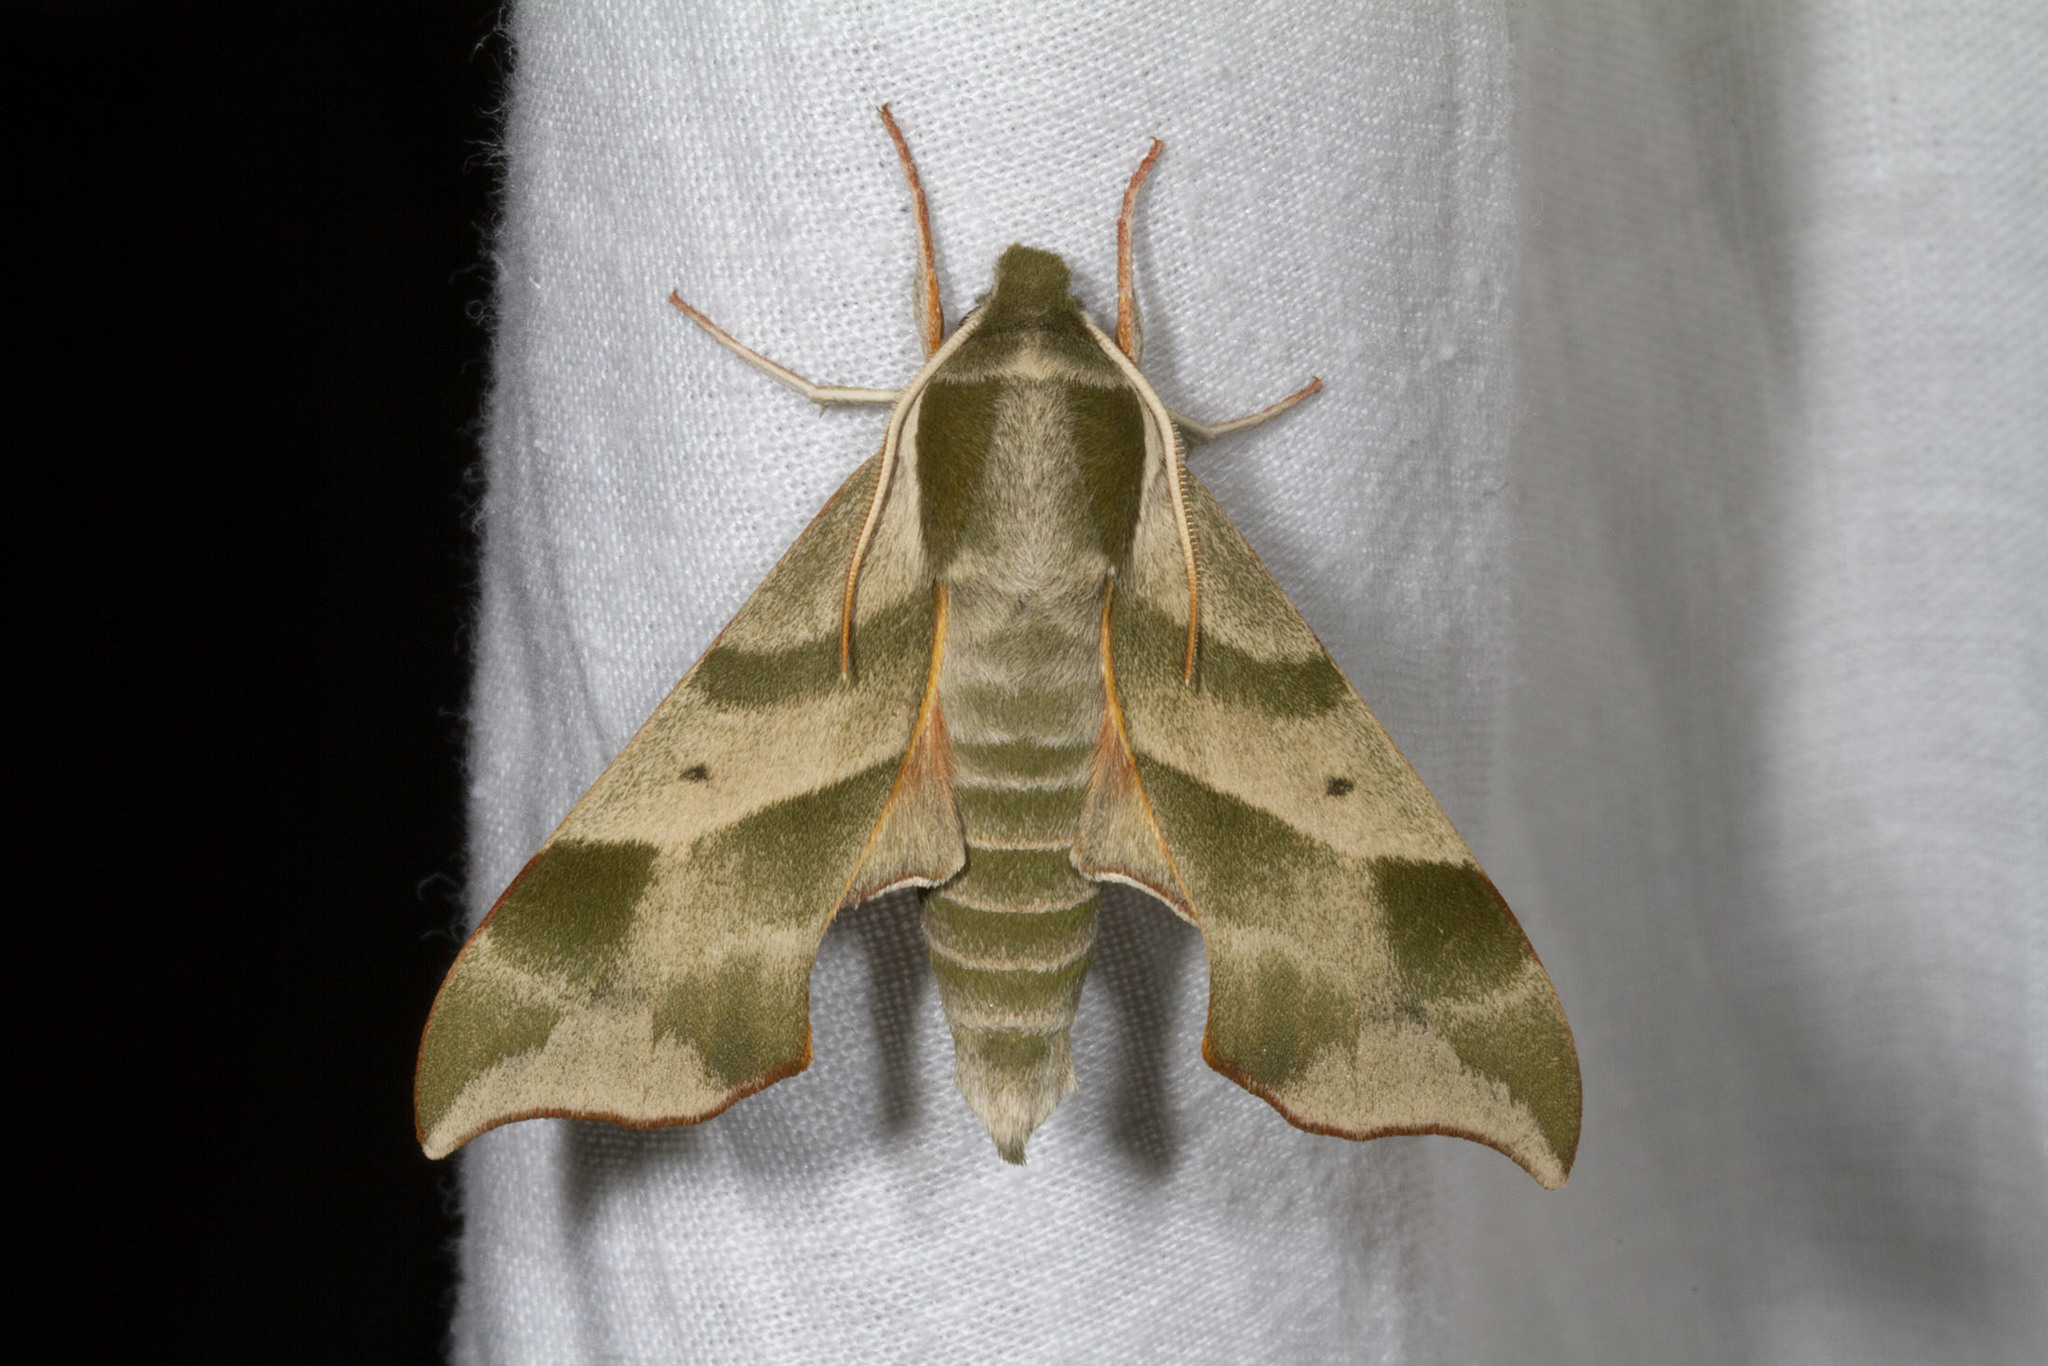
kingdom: Animalia
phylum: Arthropoda
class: Insecta
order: Lepidoptera
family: Sphingidae
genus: Darapsa
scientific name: Darapsa myron
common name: Hog sphinx
